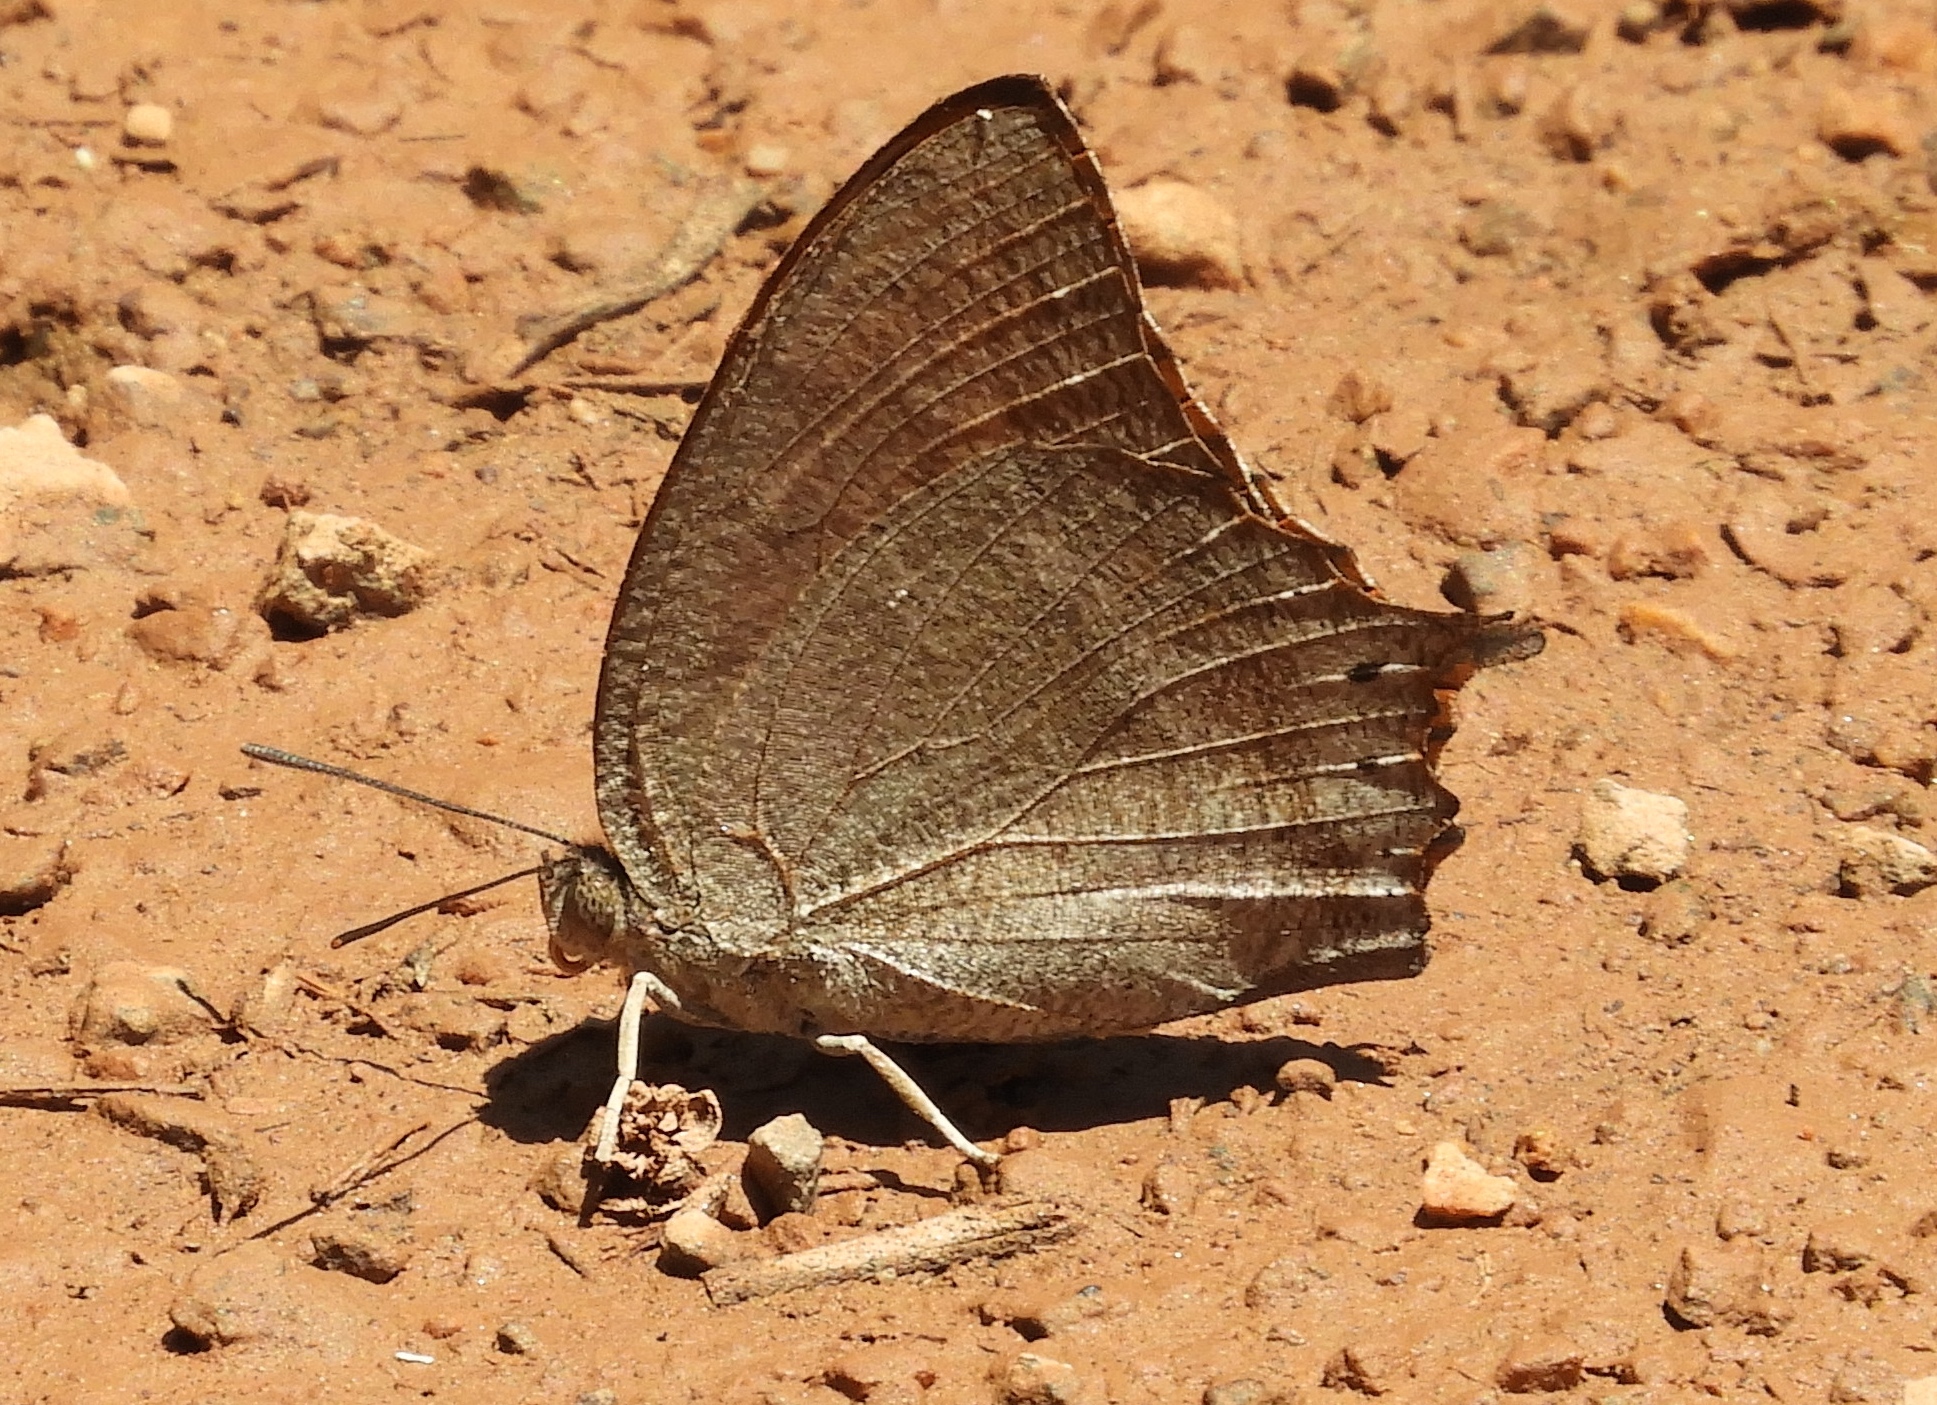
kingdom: Animalia
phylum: Arthropoda
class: Insecta
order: Lepidoptera
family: Nymphalidae
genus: Anaea
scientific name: Anaea aidea
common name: Tropical leafwing
